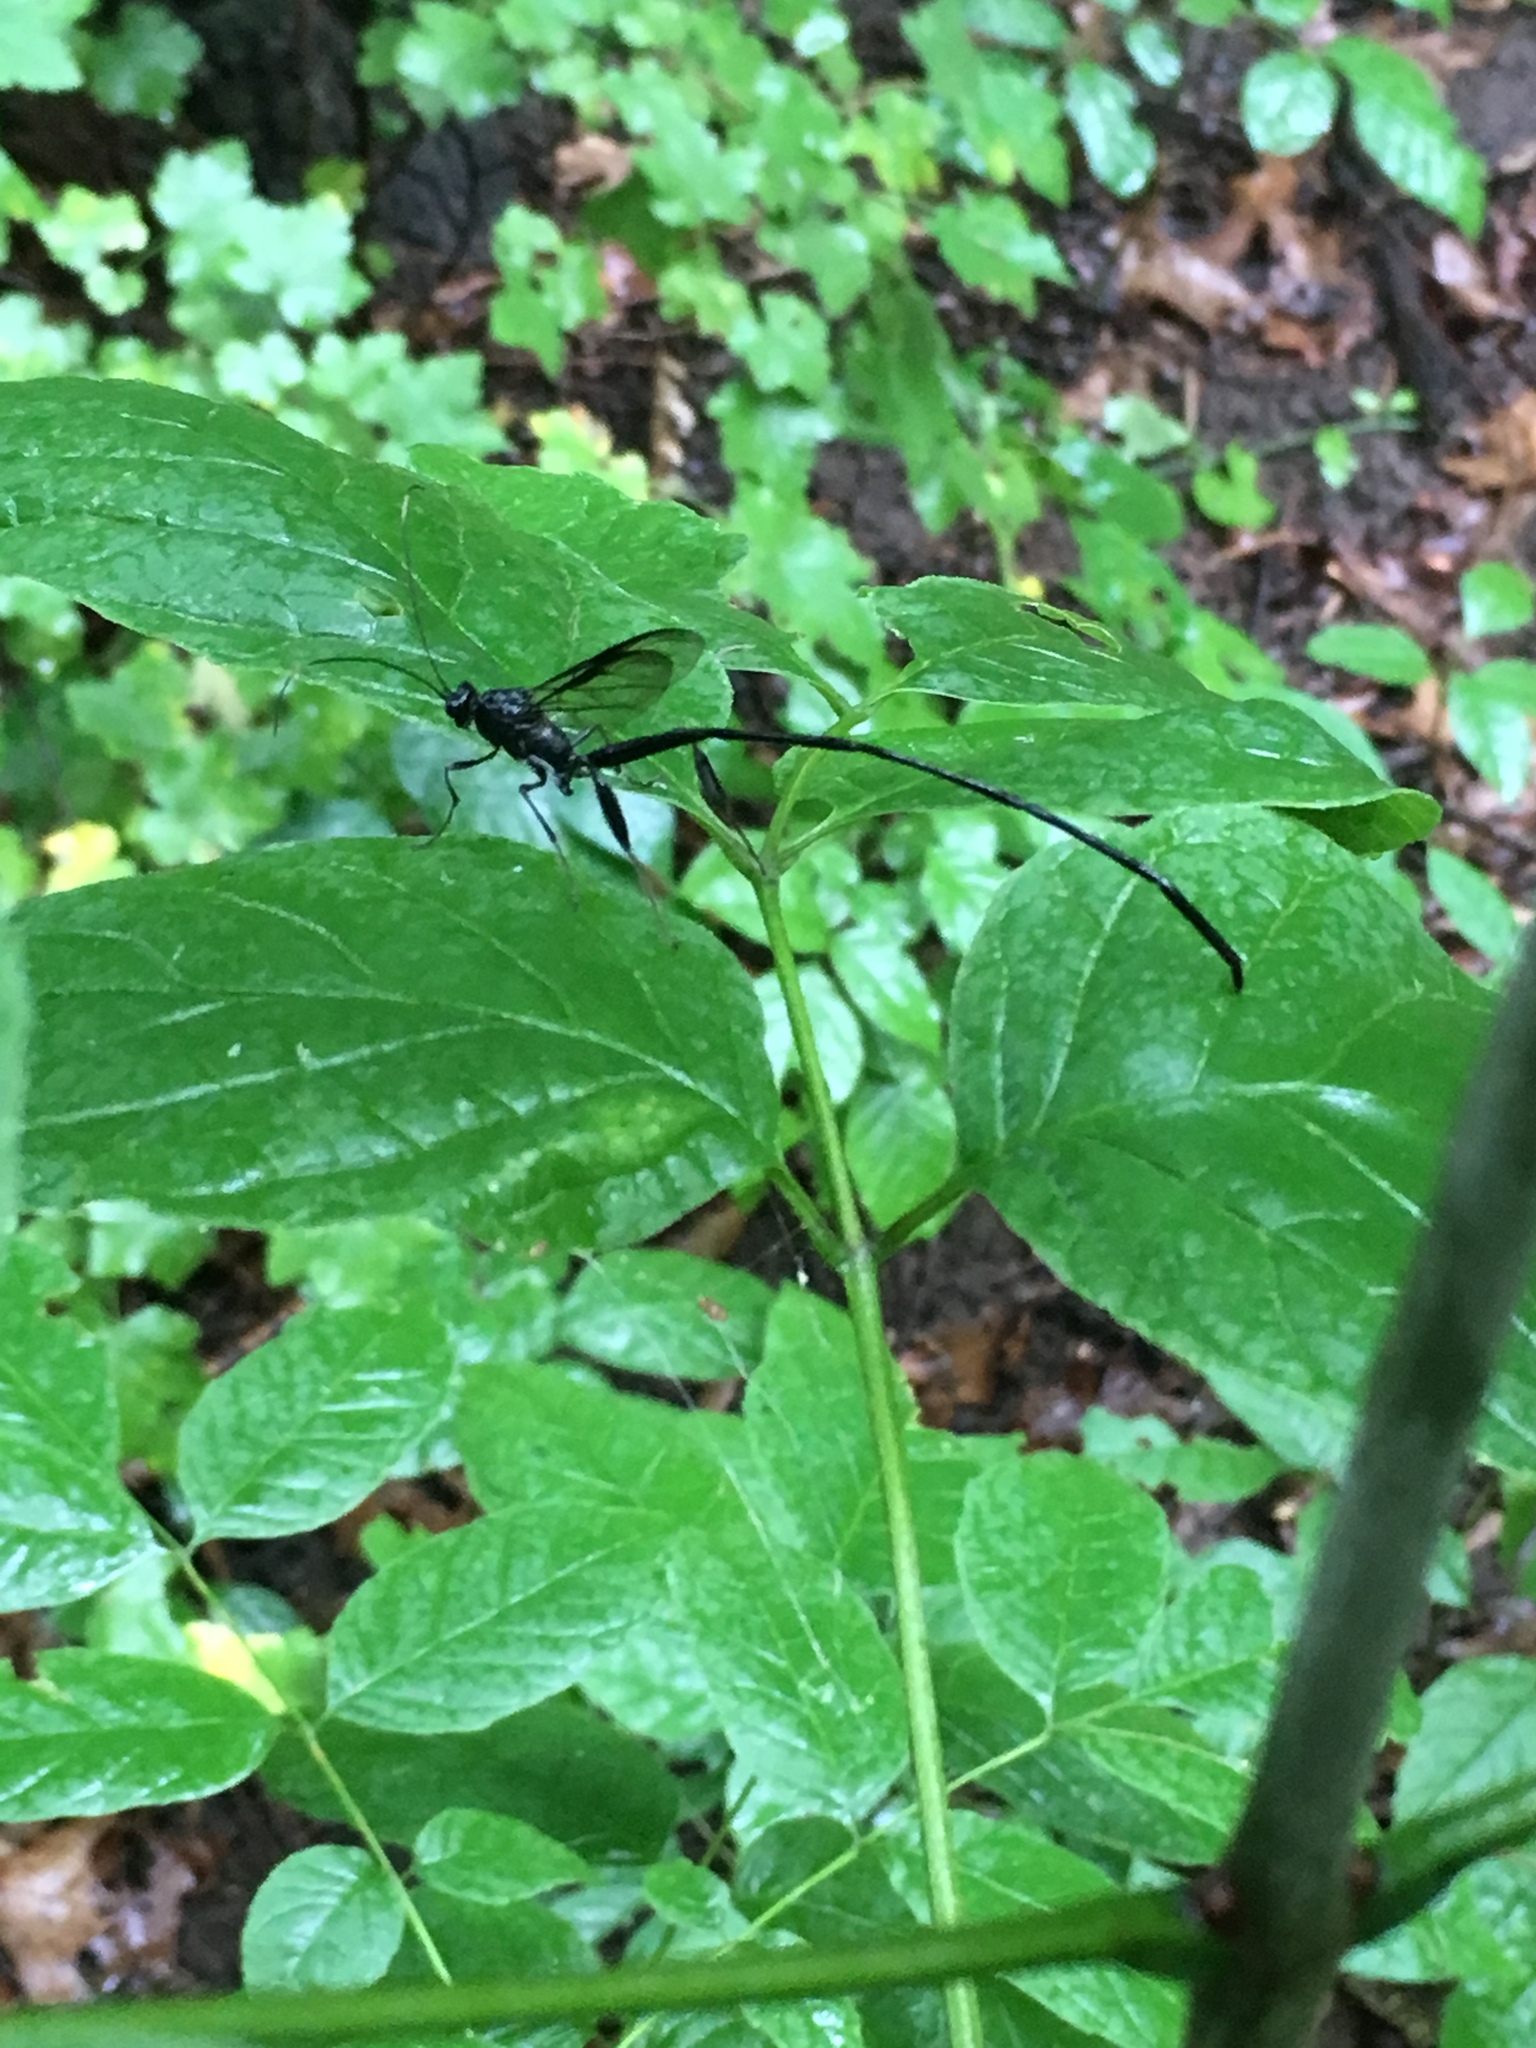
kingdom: Animalia
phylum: Arthropoda
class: Insecta
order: Hymenoptera
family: Pelecinidae
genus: Pelecinus
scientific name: Pelecinus polyturator
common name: American pelecinid wasp
